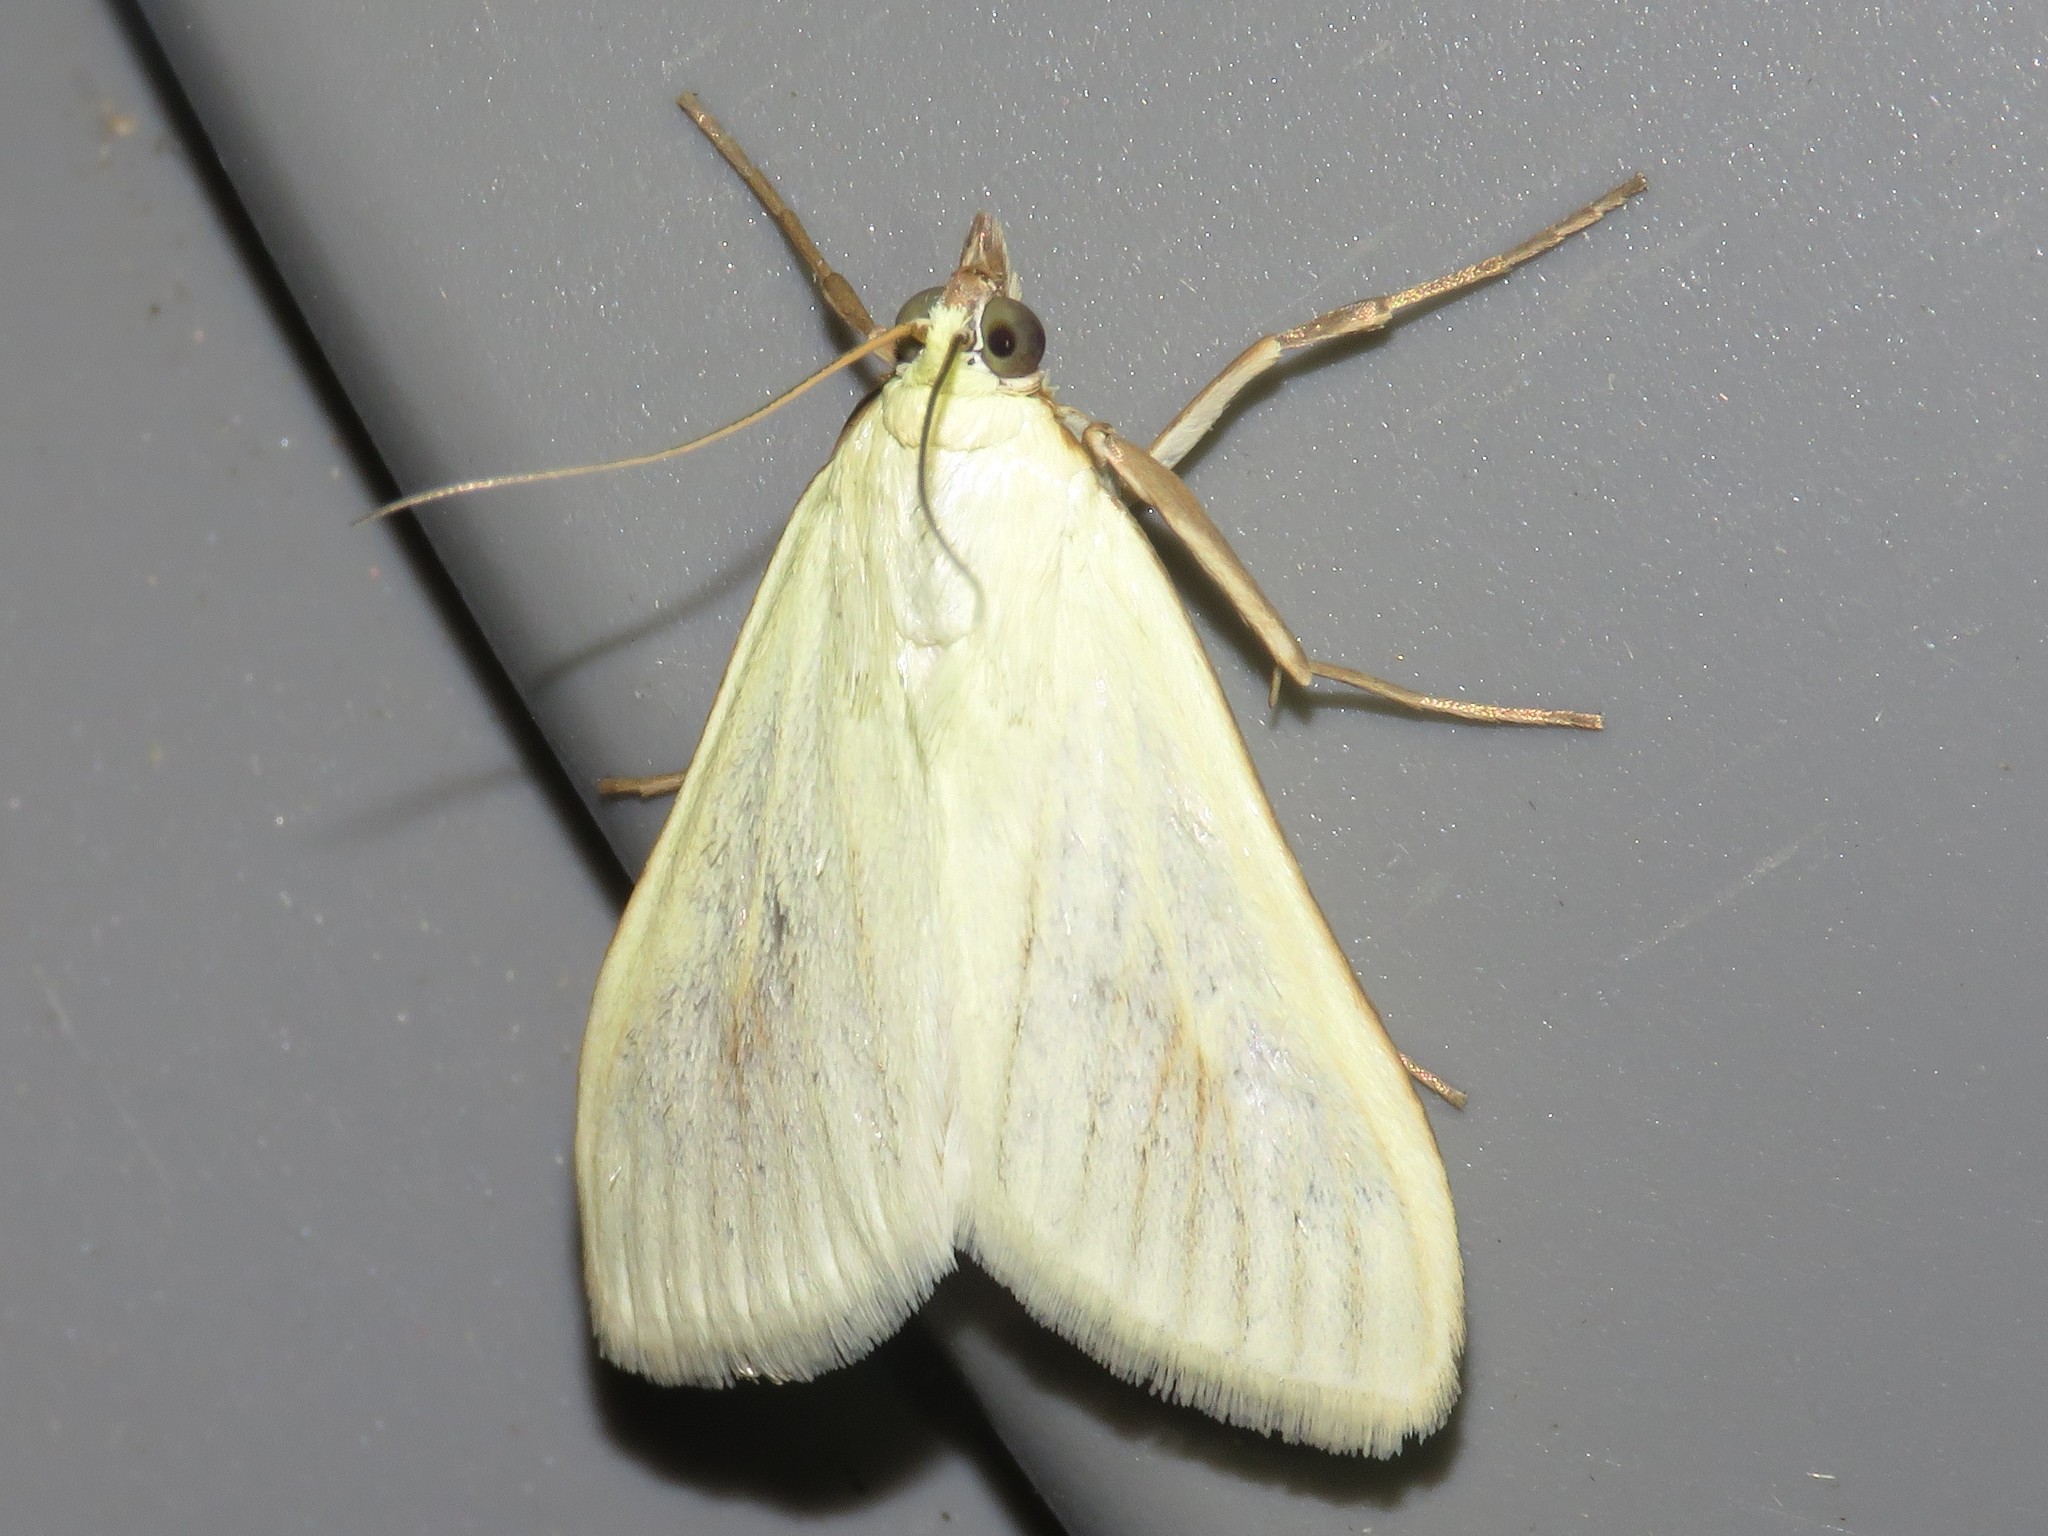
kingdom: Animalia
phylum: Arthropoda
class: Insecta
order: Lepidoptera
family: Crambidae
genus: Sitochroa
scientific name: Sitochroa palealis
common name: Greenish-yellow sitochroa moth
